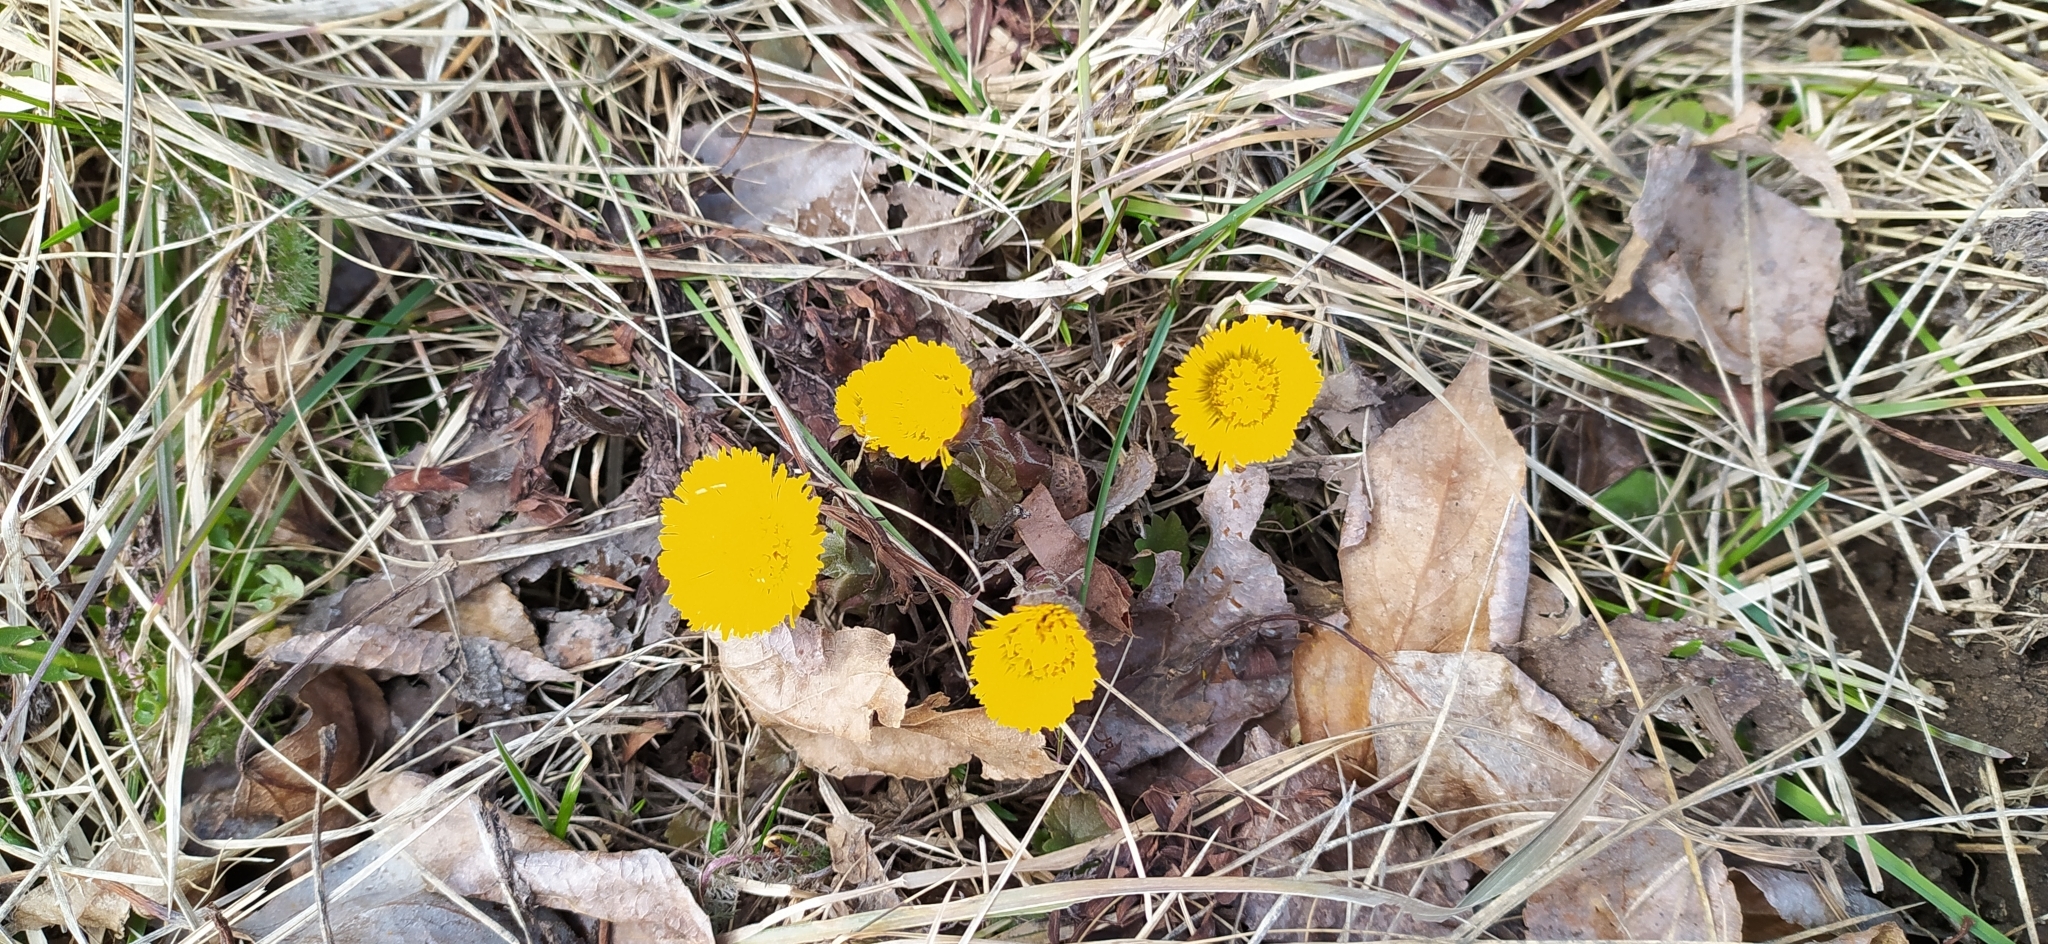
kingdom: Plantae
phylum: Tracheophyta
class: Magnoliopsida
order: Asterales
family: Asteraceae
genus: Tussilago
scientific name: Tussilago farfara
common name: Coltsfoot
